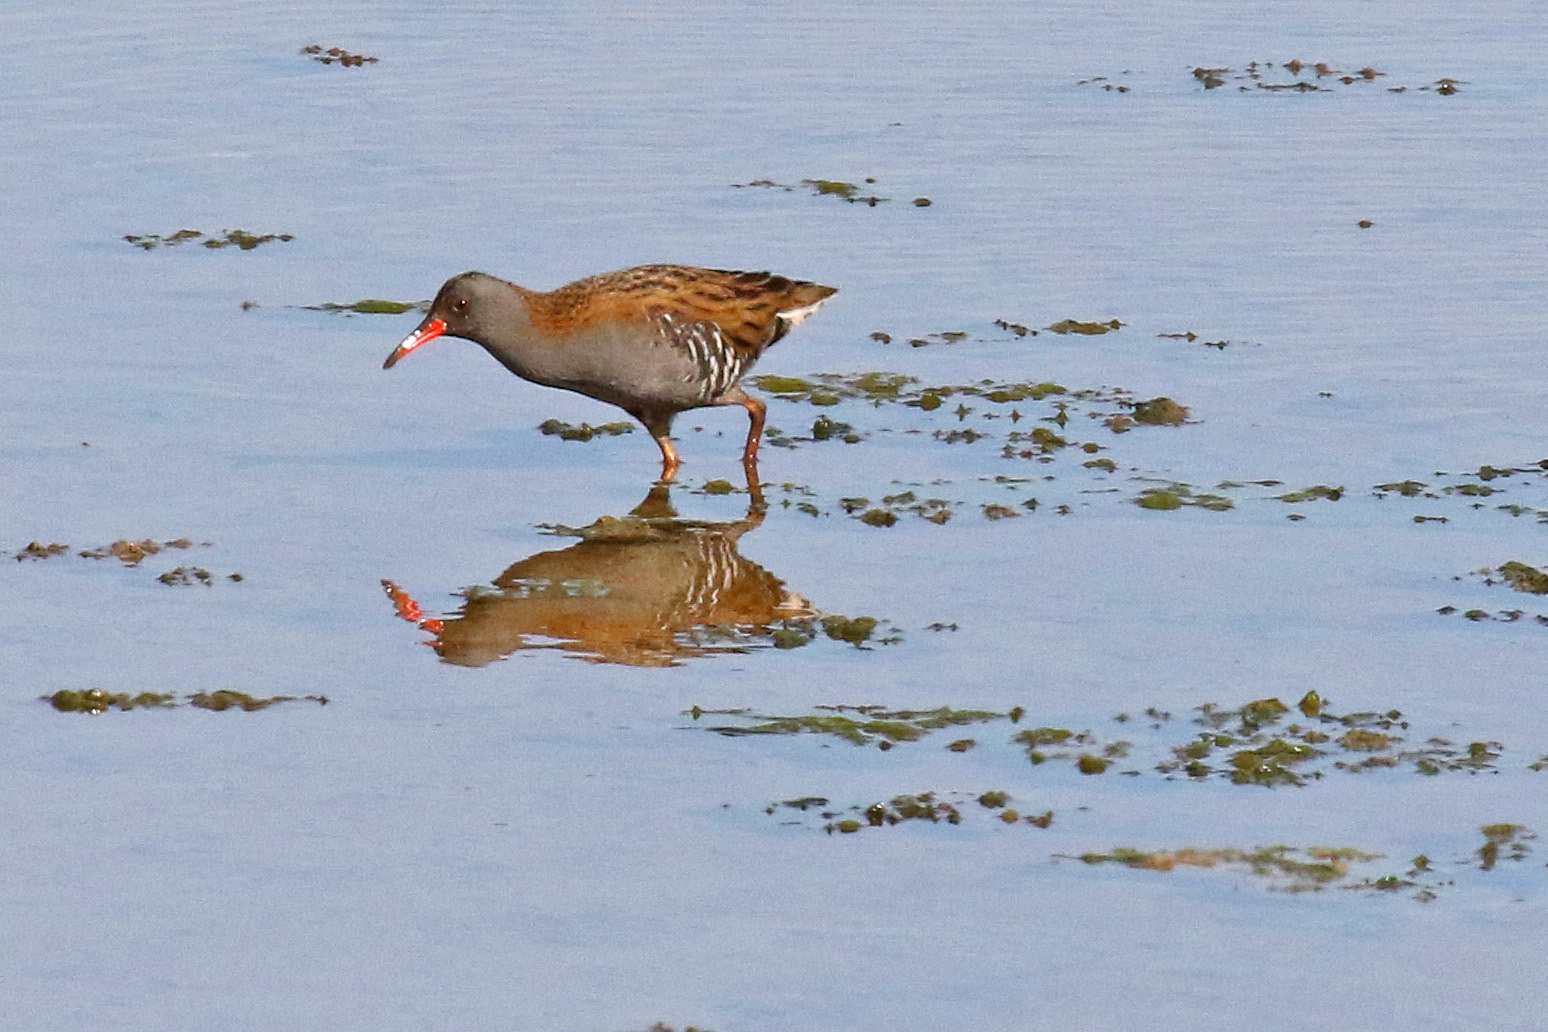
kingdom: Animalia
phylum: Chordata
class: Aves
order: Gruiformes
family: Rallidae
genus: Rallus
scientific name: Rallus aquaticus
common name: Water rail
